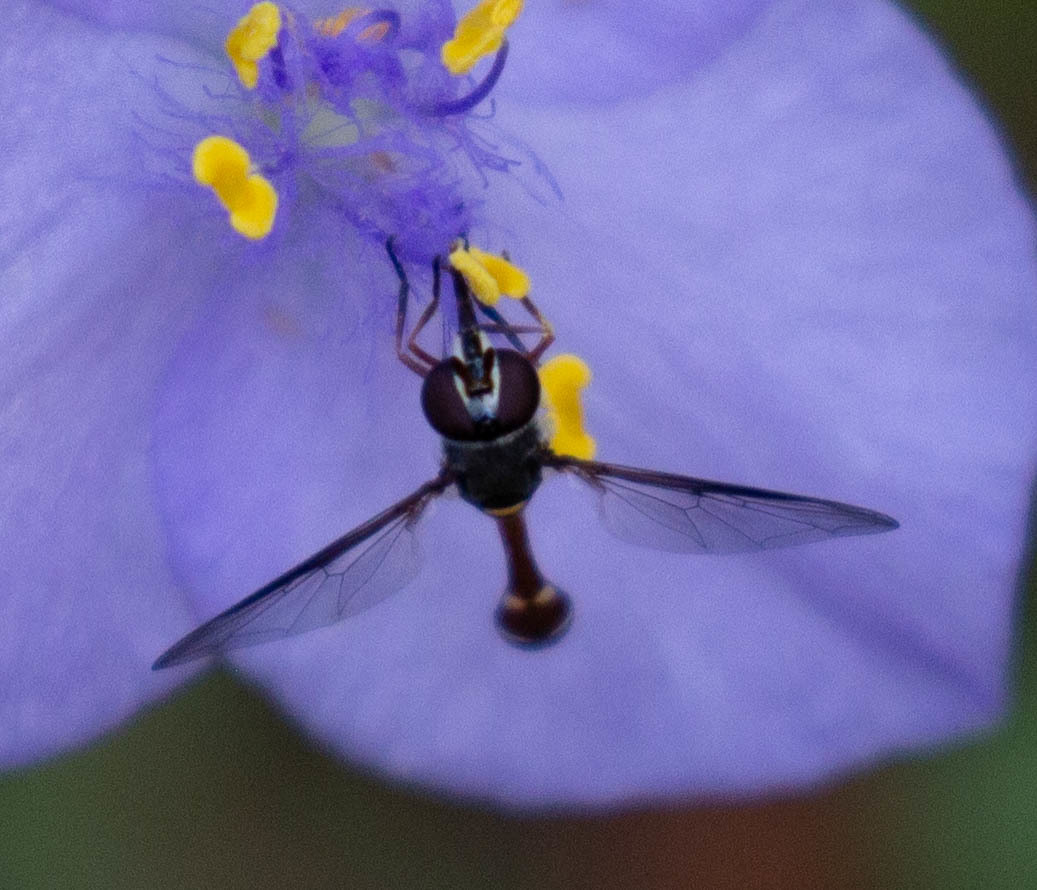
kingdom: Animalia
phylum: Arthropoda
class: Insecta
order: Diptera
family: Syrphidae
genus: Dioprosopa
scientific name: Dioprosopa clavatus
